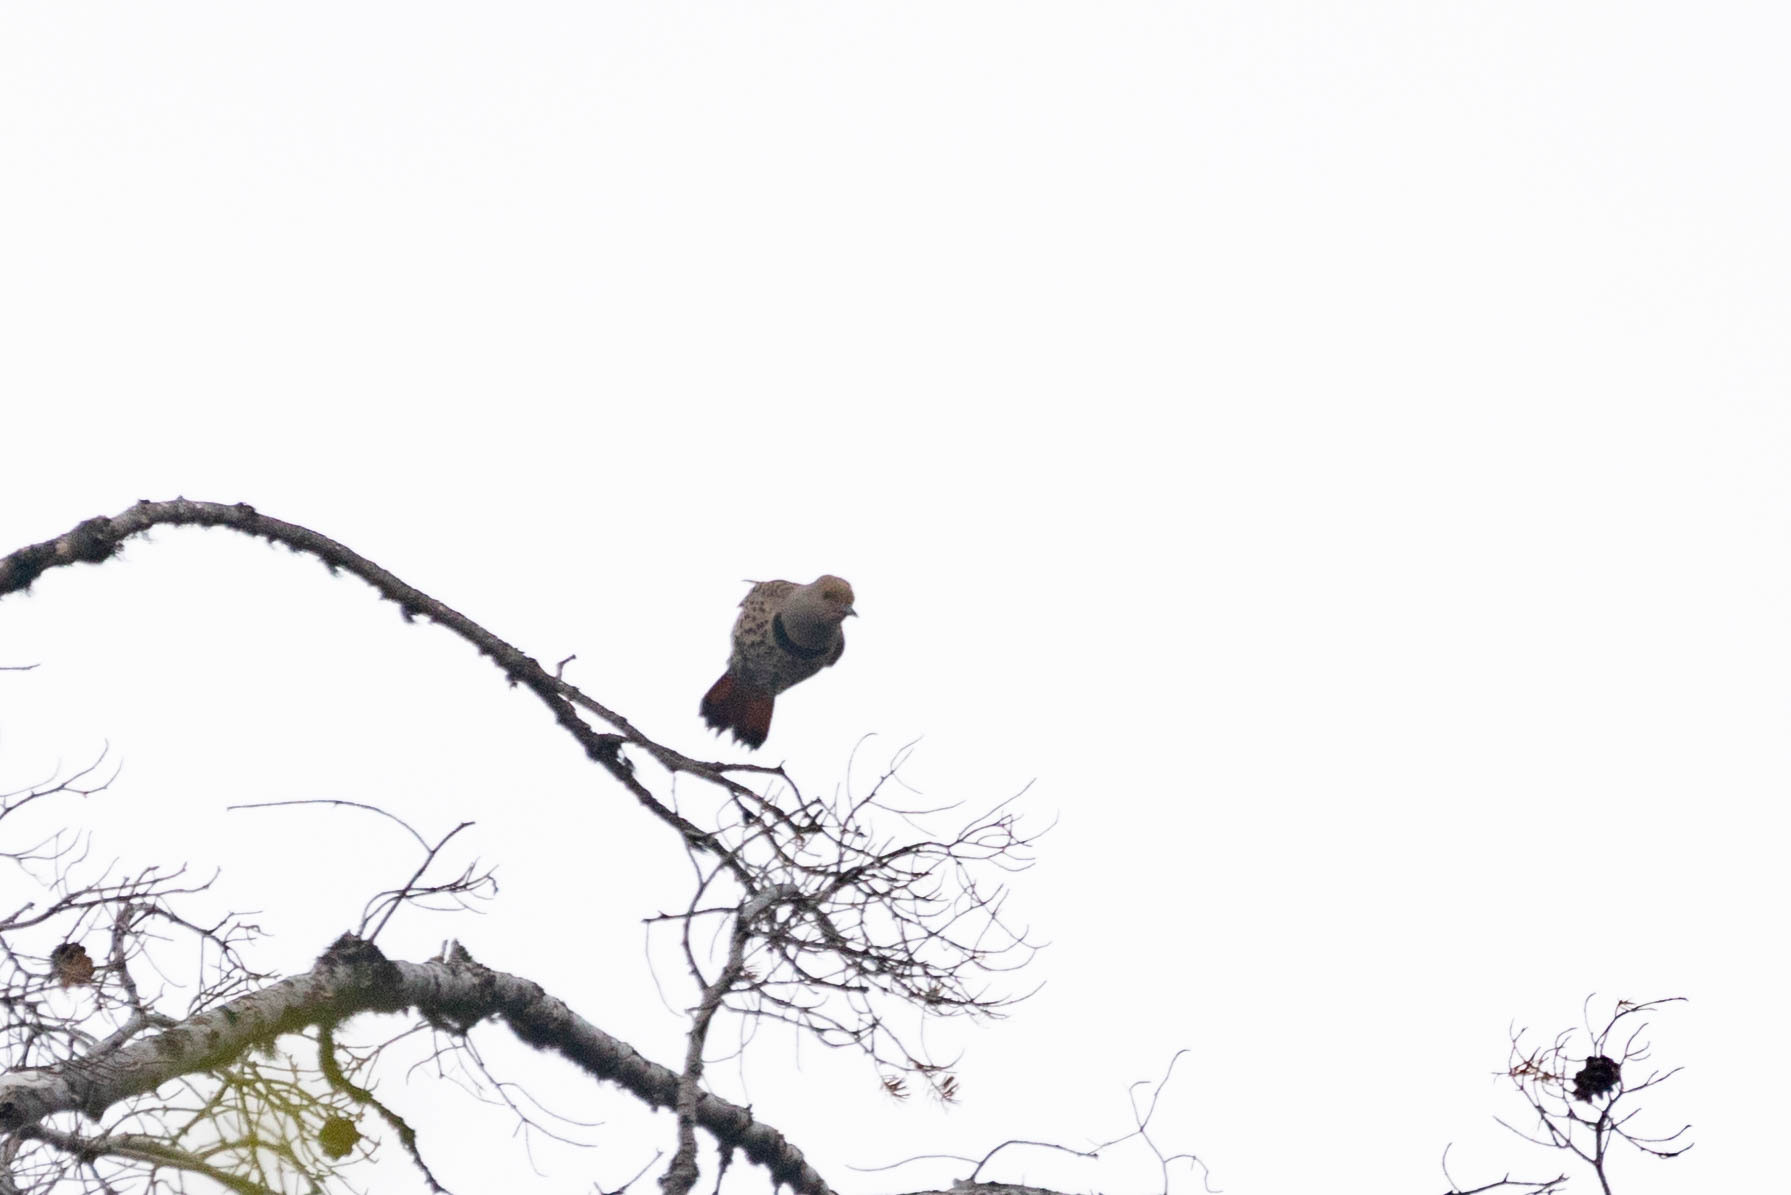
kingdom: Animalia
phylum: Chordata
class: Aves
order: Piciformes
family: Picidae
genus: Colaptes
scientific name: Colaptes auratus
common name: Northern flicker
